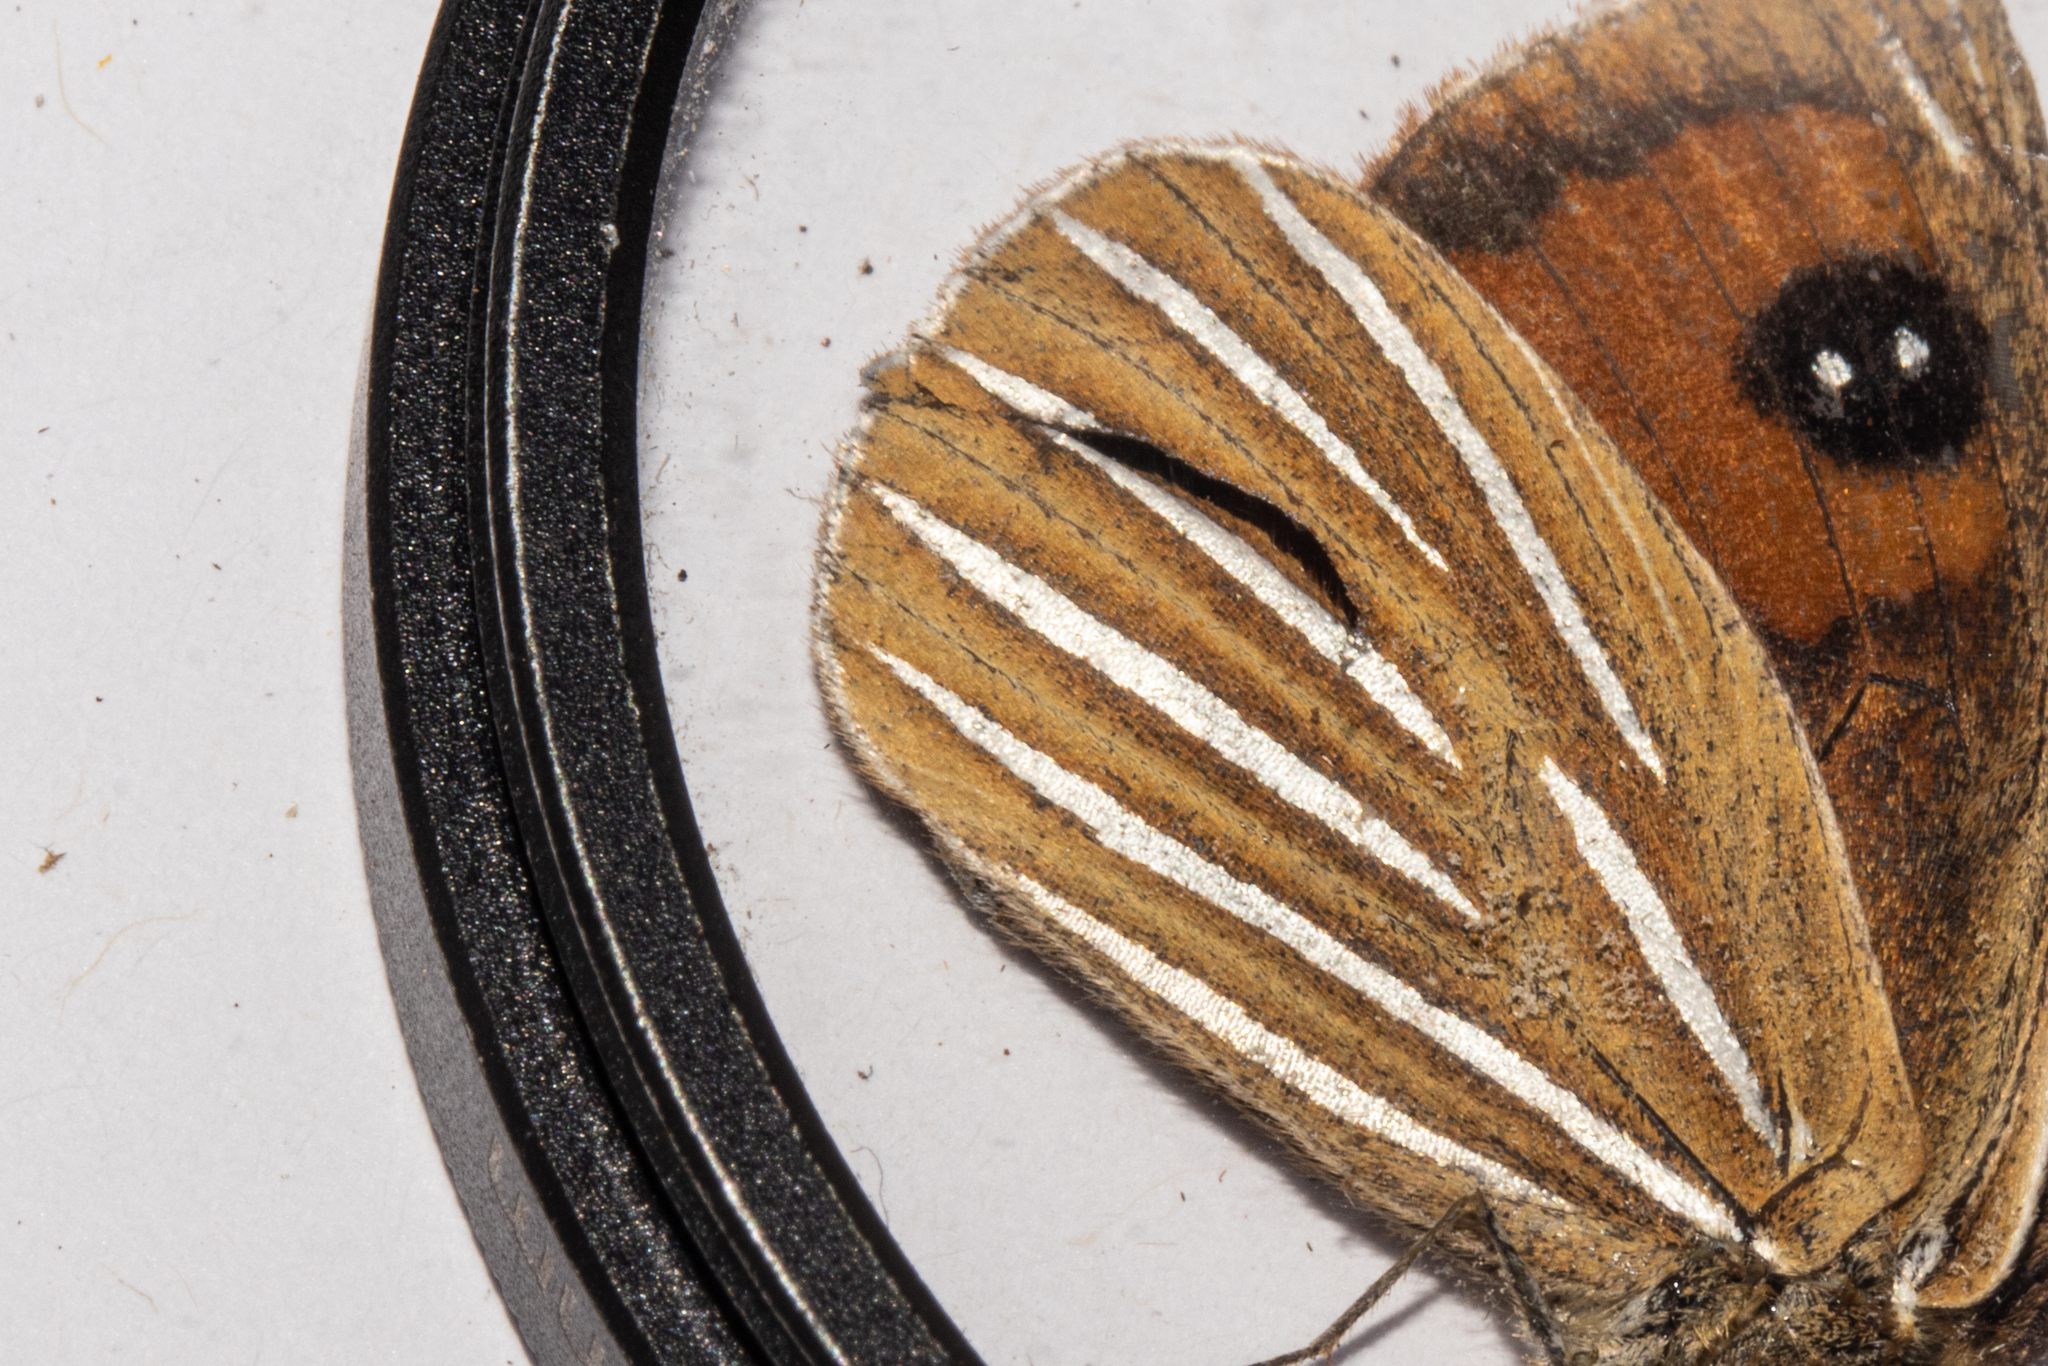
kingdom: Animalia
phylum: Arthropoda
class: Insecta
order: Lepidoptera
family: Nymphalidae
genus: Argyrophenga
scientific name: Argyrophenga antipodum
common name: Common tussock butterfly
